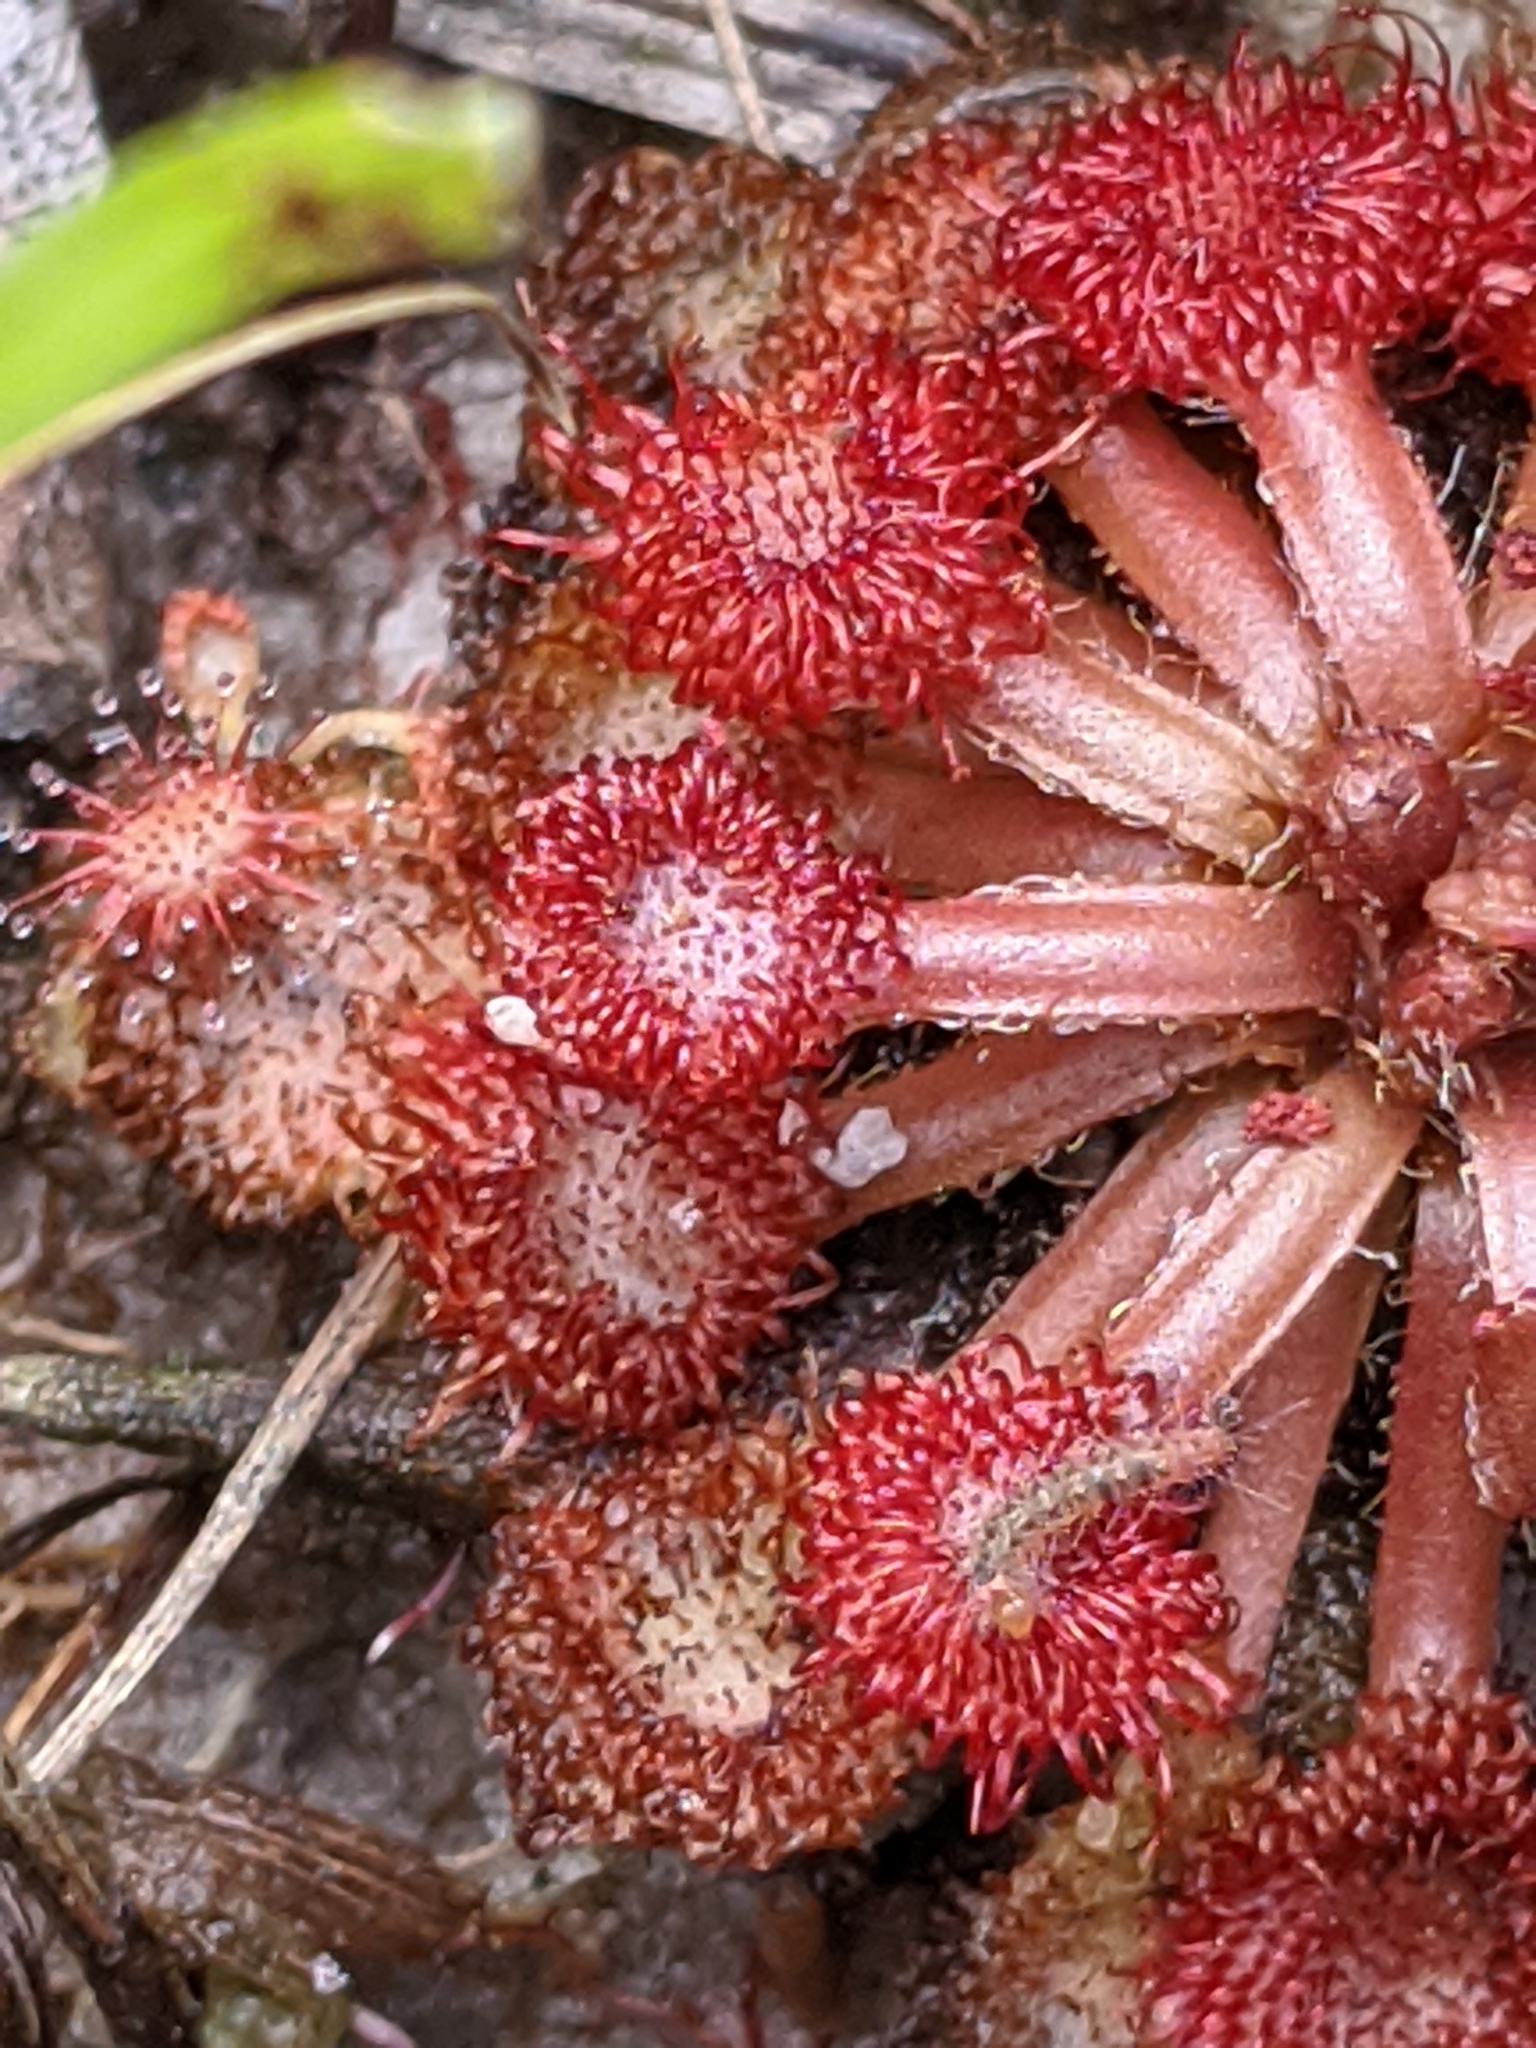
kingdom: Plantae
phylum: Tracheophyta
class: Magnoliopsida
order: Caryophyllales
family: Droseraceae
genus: Drosera
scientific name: Drosera capillaris
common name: Pink sundew
